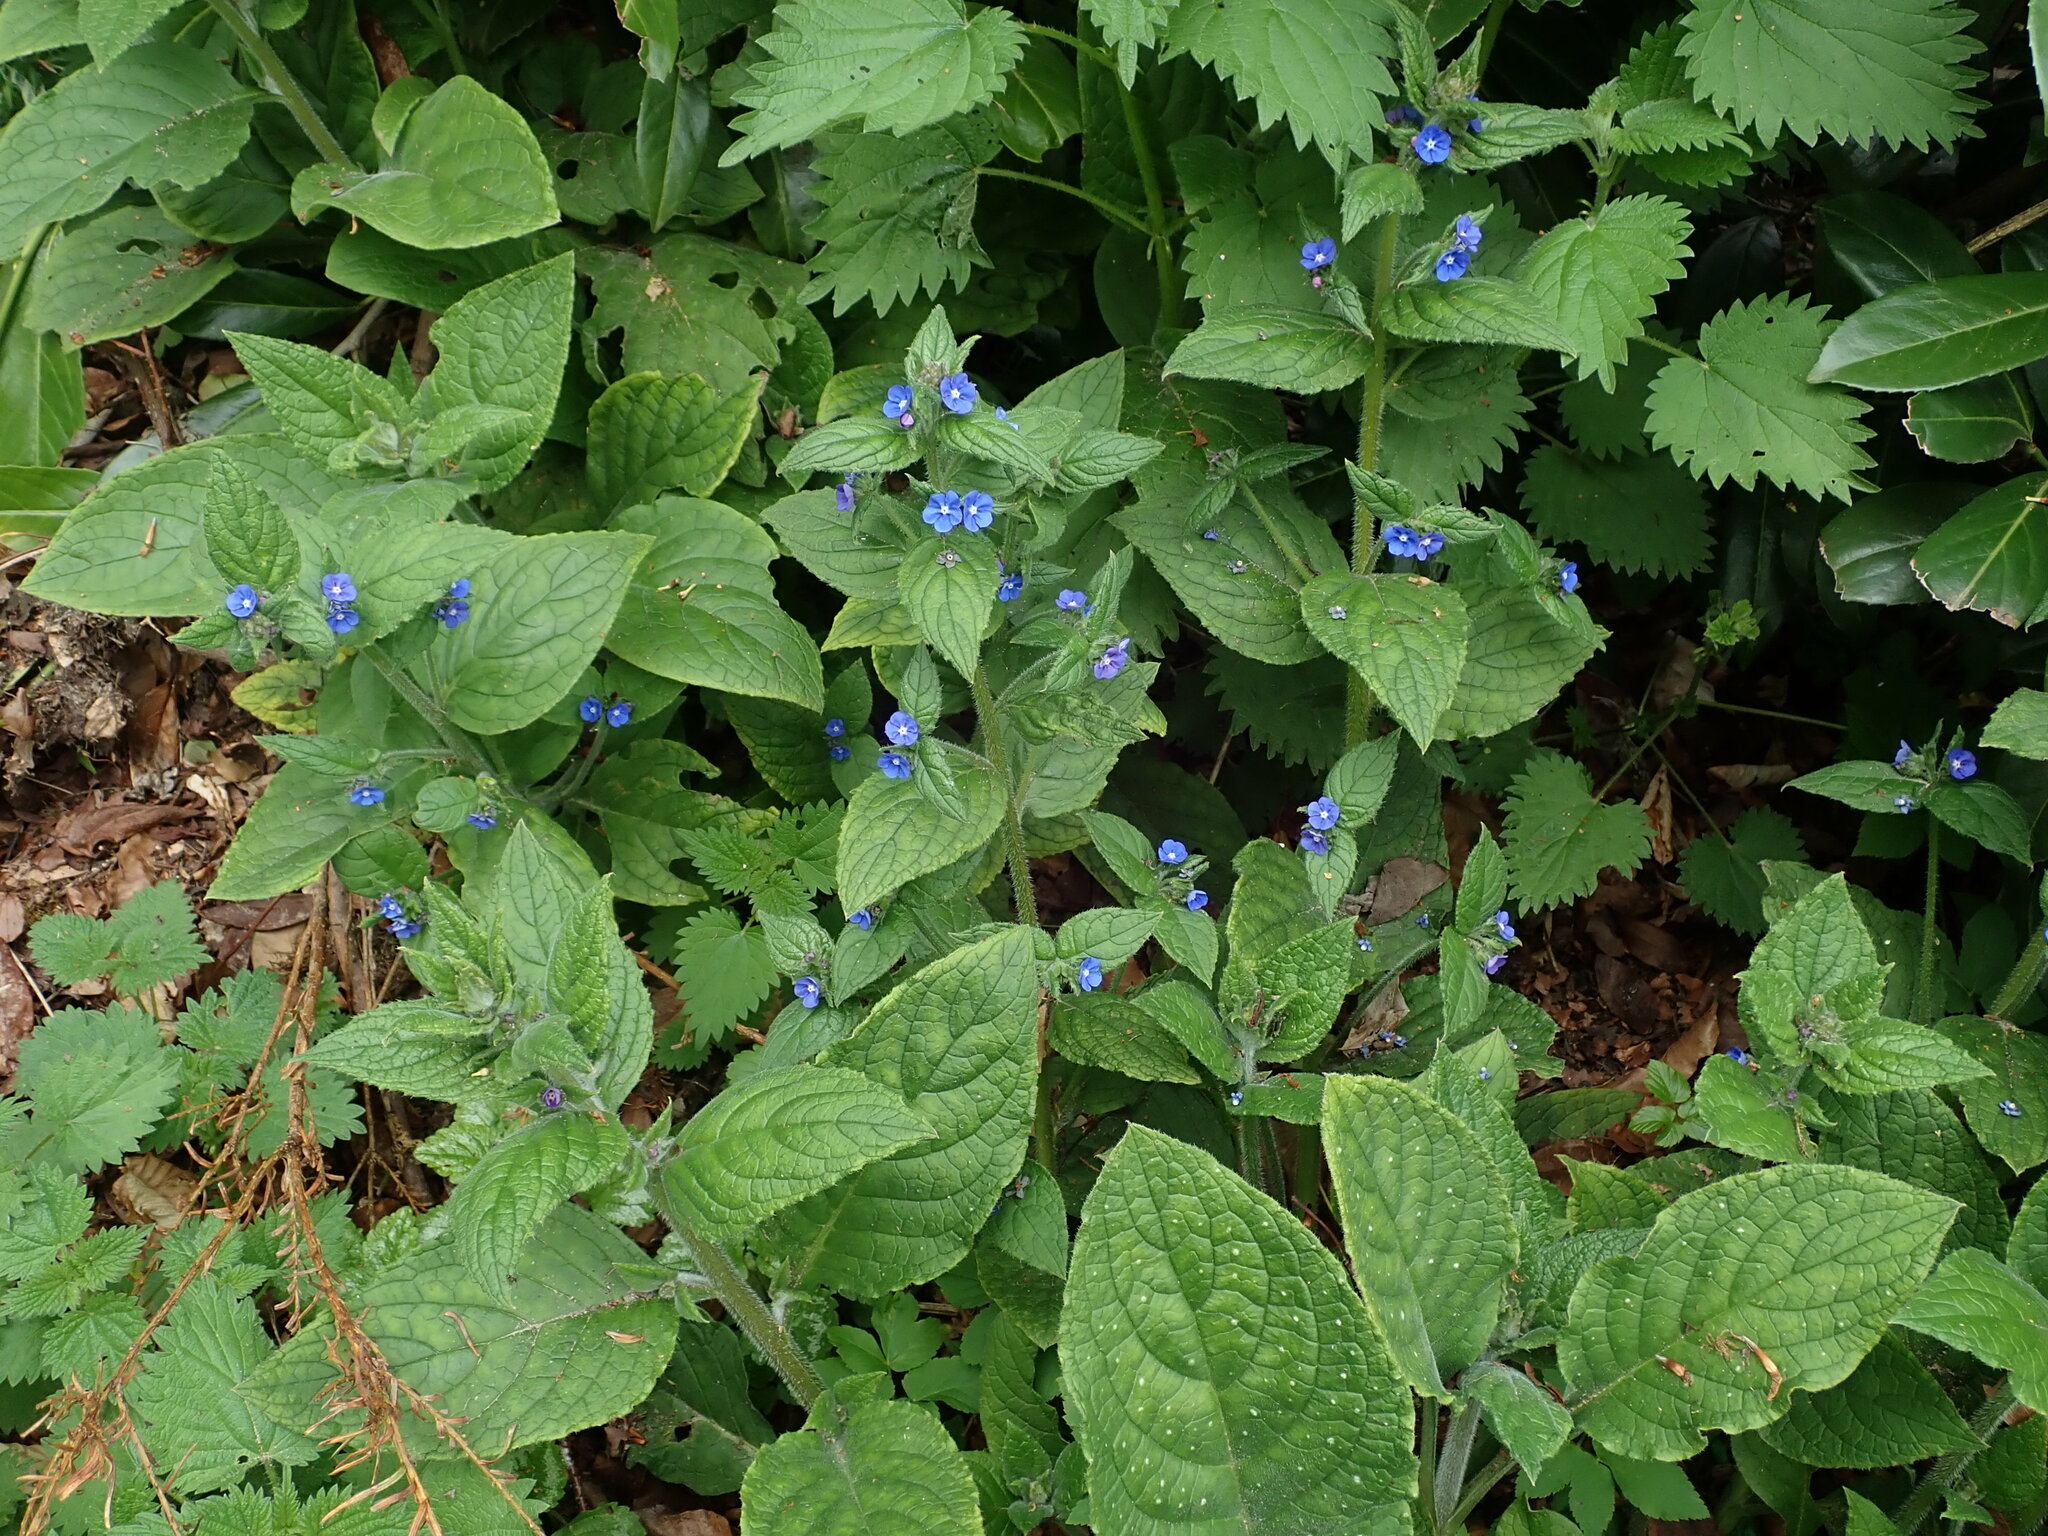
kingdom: Plantae
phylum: Tracheophyta
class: Magnoliopsida
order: Boraginales
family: Boraginaceae
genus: Pentaglottis
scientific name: Pentaglottis sempervirens
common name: Green alkanet
